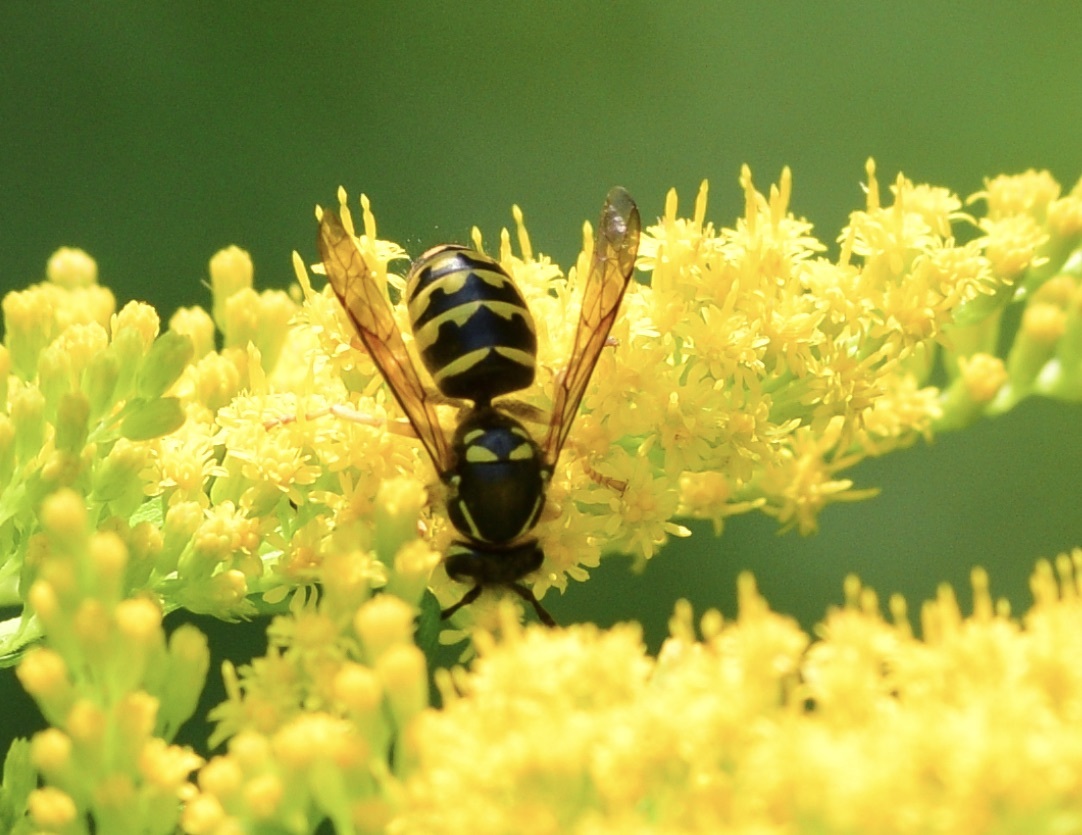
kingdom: Animalia
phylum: Arthropoda
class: Insecta
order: Hymenoptera
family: Vespidae
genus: Dolichovespula
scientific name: Dolichovespula arenaria
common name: Aerial yellowjacket
